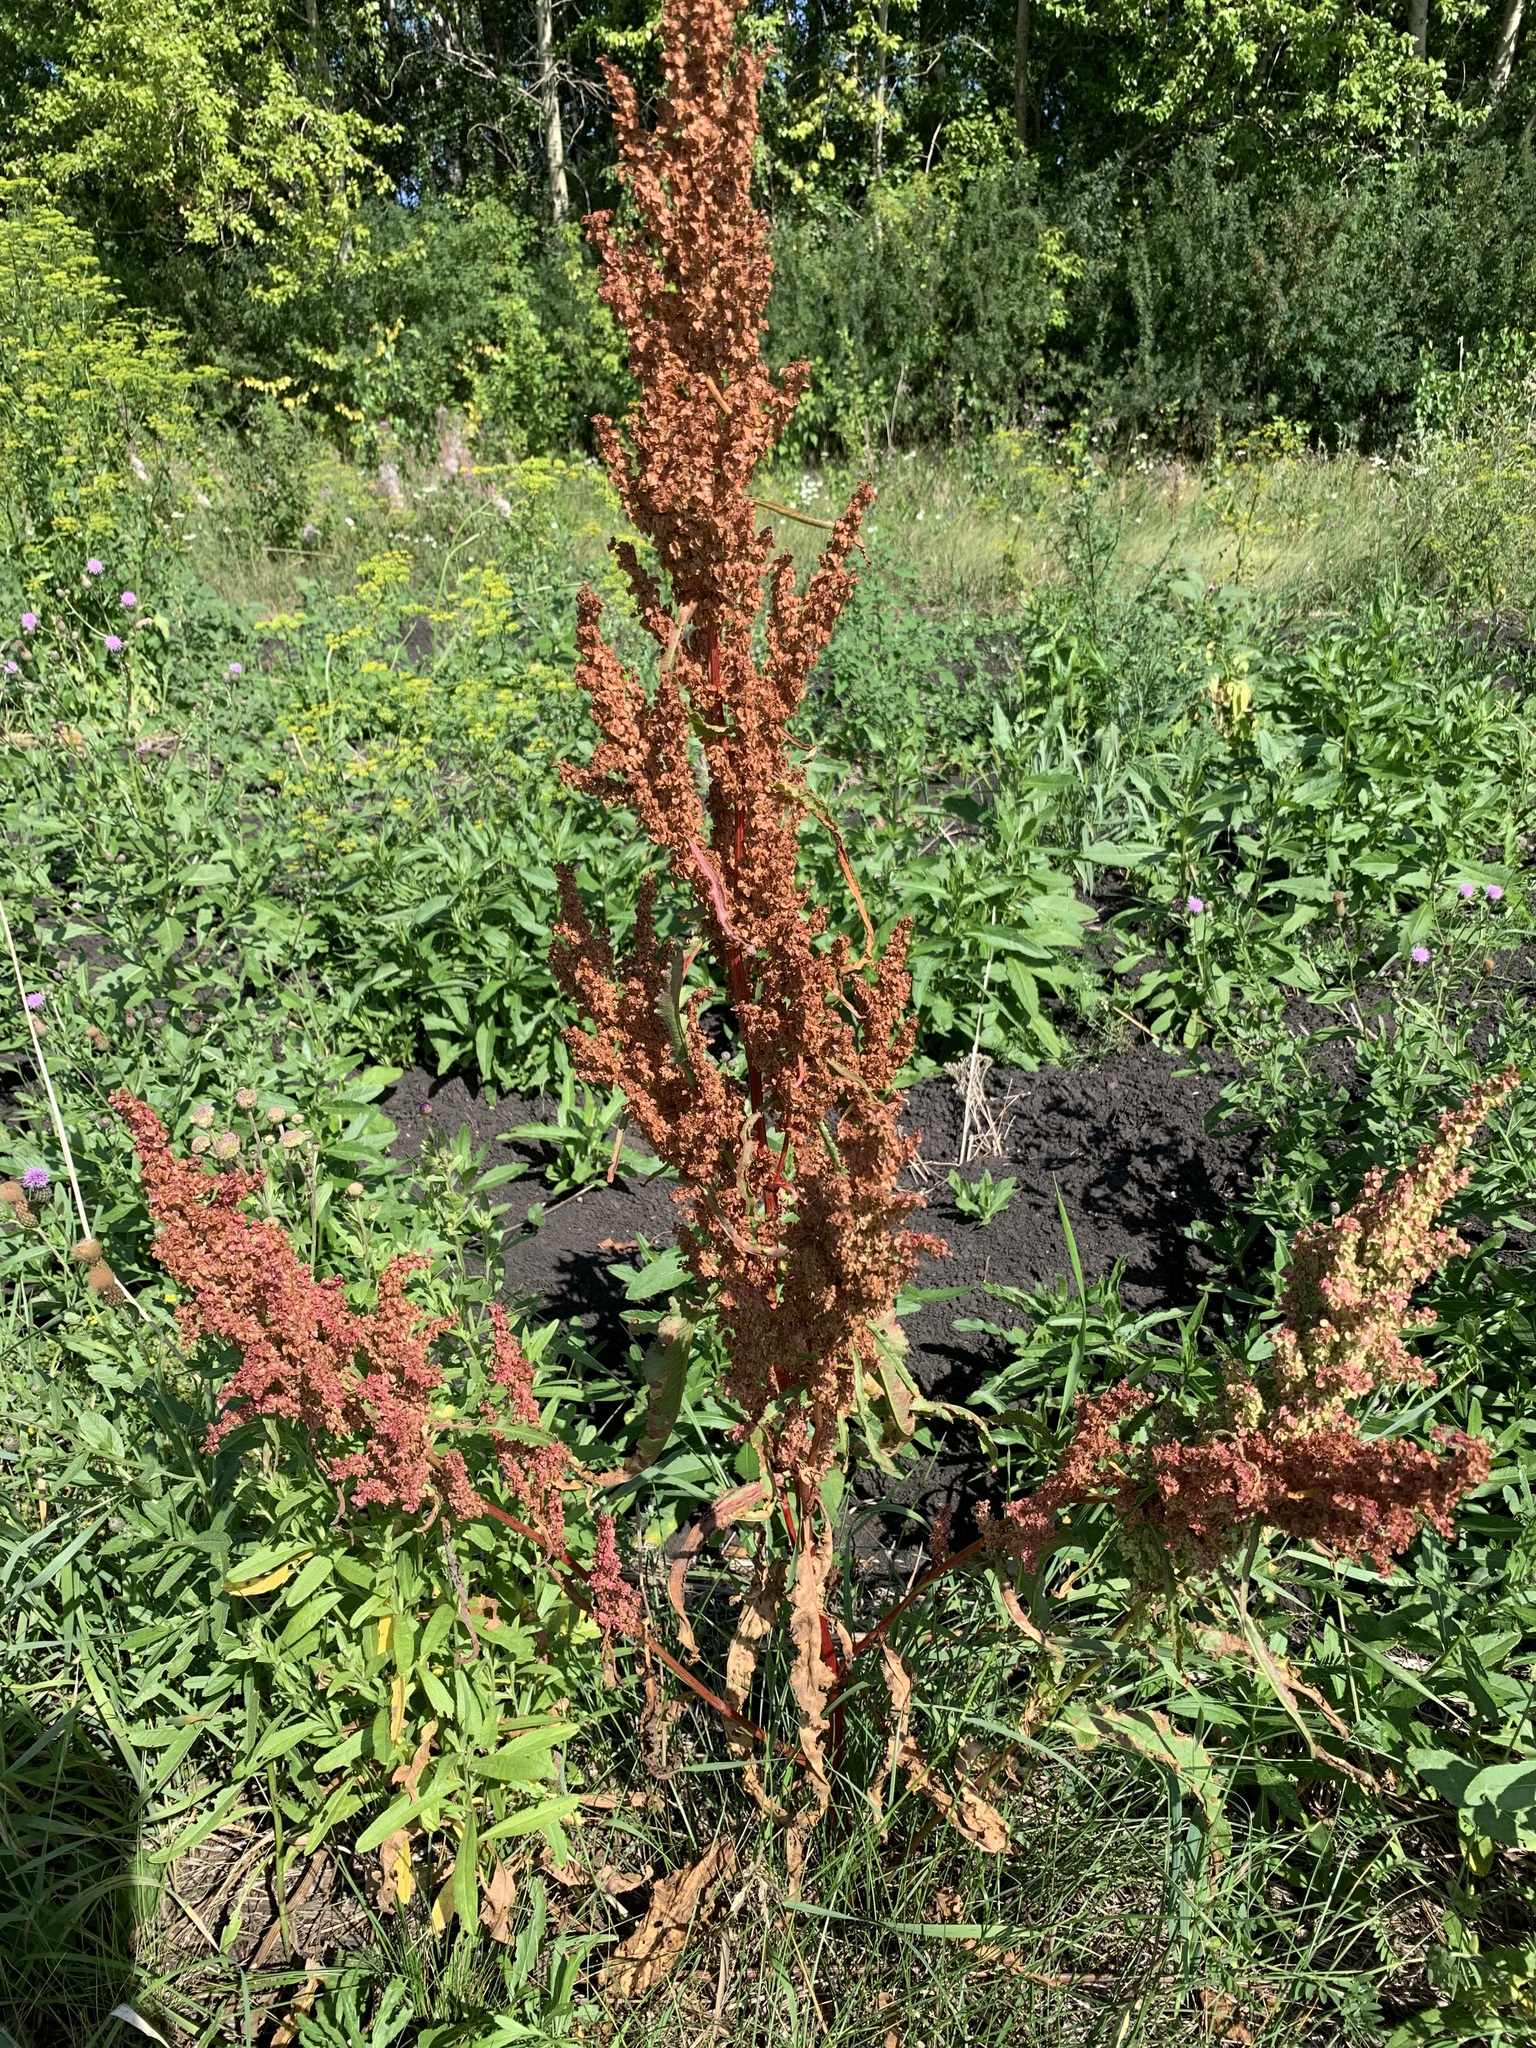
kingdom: Plantae
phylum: Tracheophyta
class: Magnoliopsida
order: Caryophyllales
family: Polygonaceae
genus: Rumex
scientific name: Rumex pseudonatronatus
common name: Field dock
